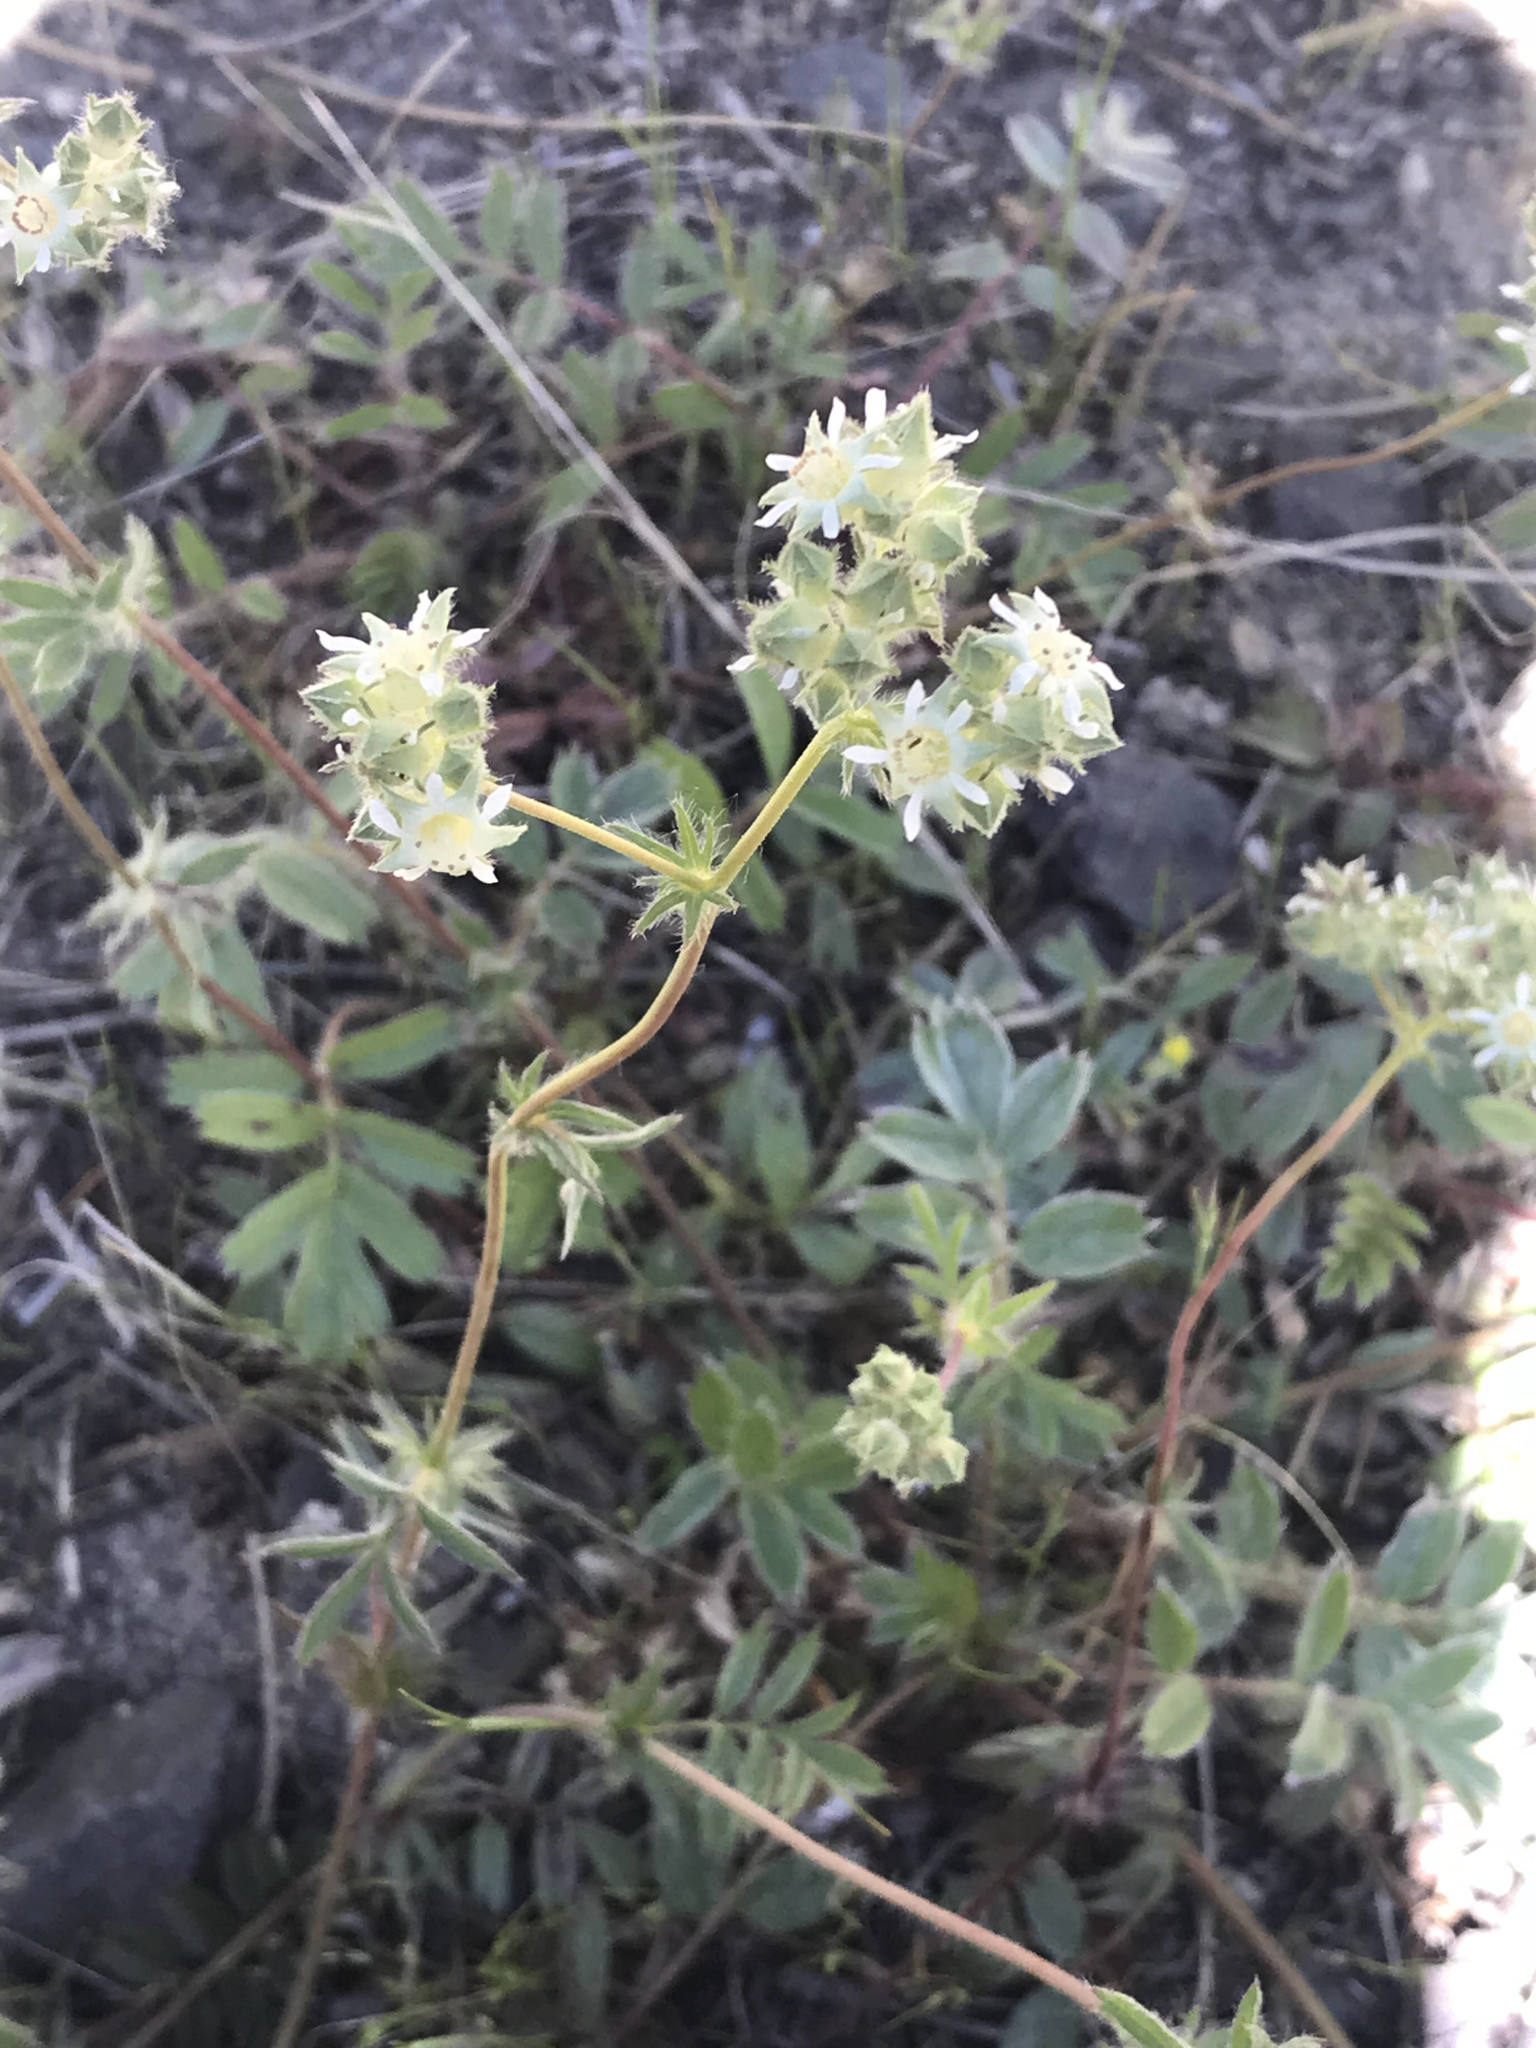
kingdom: Plantae
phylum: Tracheophyta
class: Magnoliopsida
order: Rosales
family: Rosaceae
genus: Potentilla
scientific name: Potentilla tilingii
